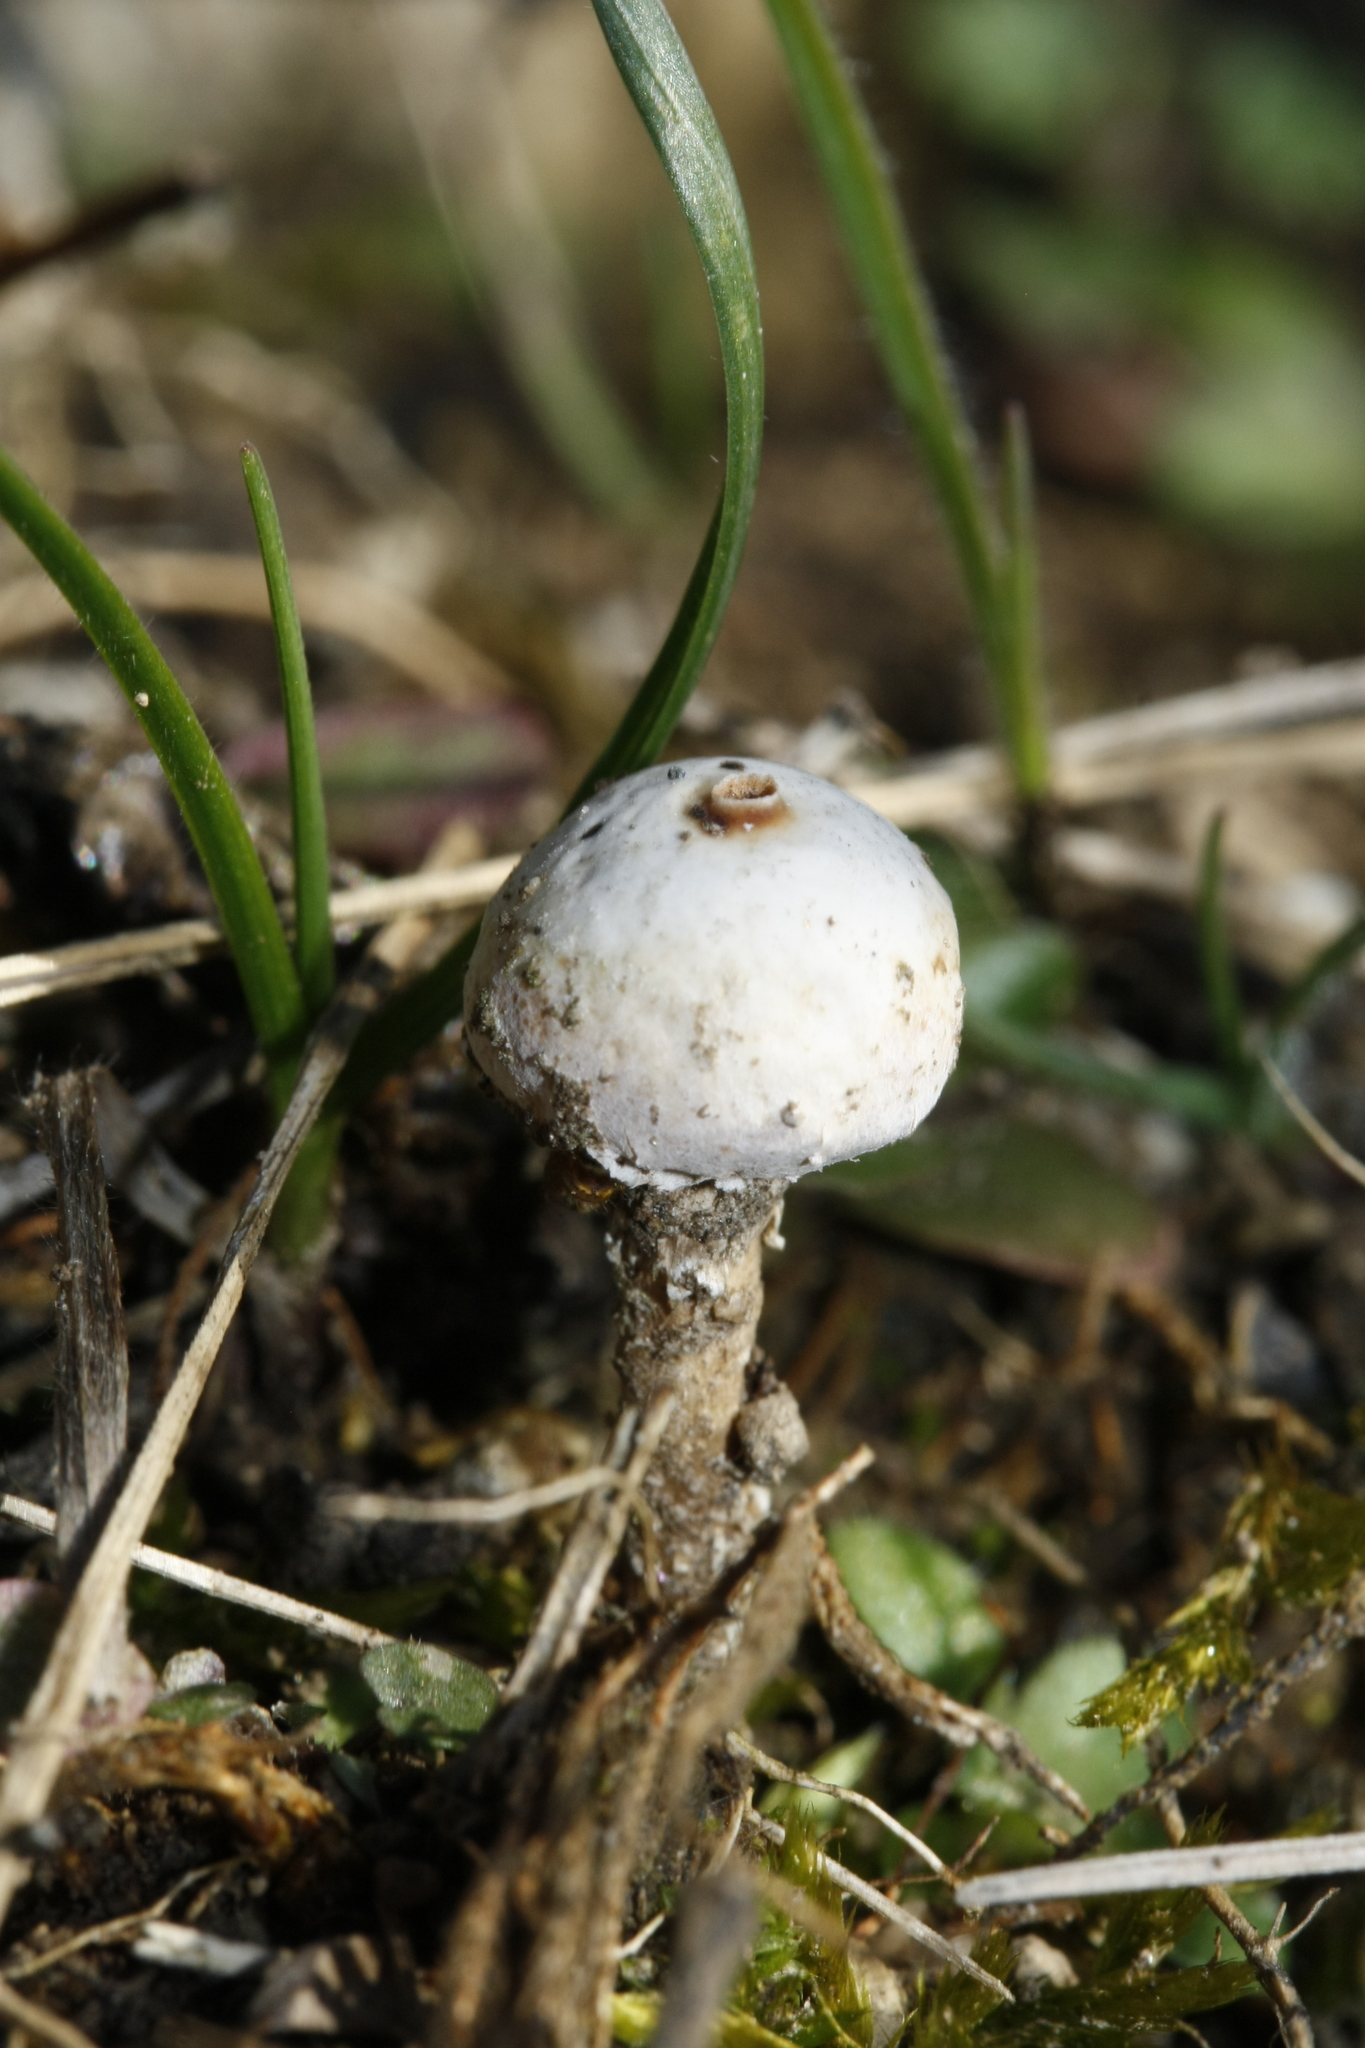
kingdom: Fungi
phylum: Basidiomycota
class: Agaricomycetes
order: Agaricales
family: Agaricaceae
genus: Tulostoma
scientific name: Tulostoma brumale
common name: Winter stalk puffball
